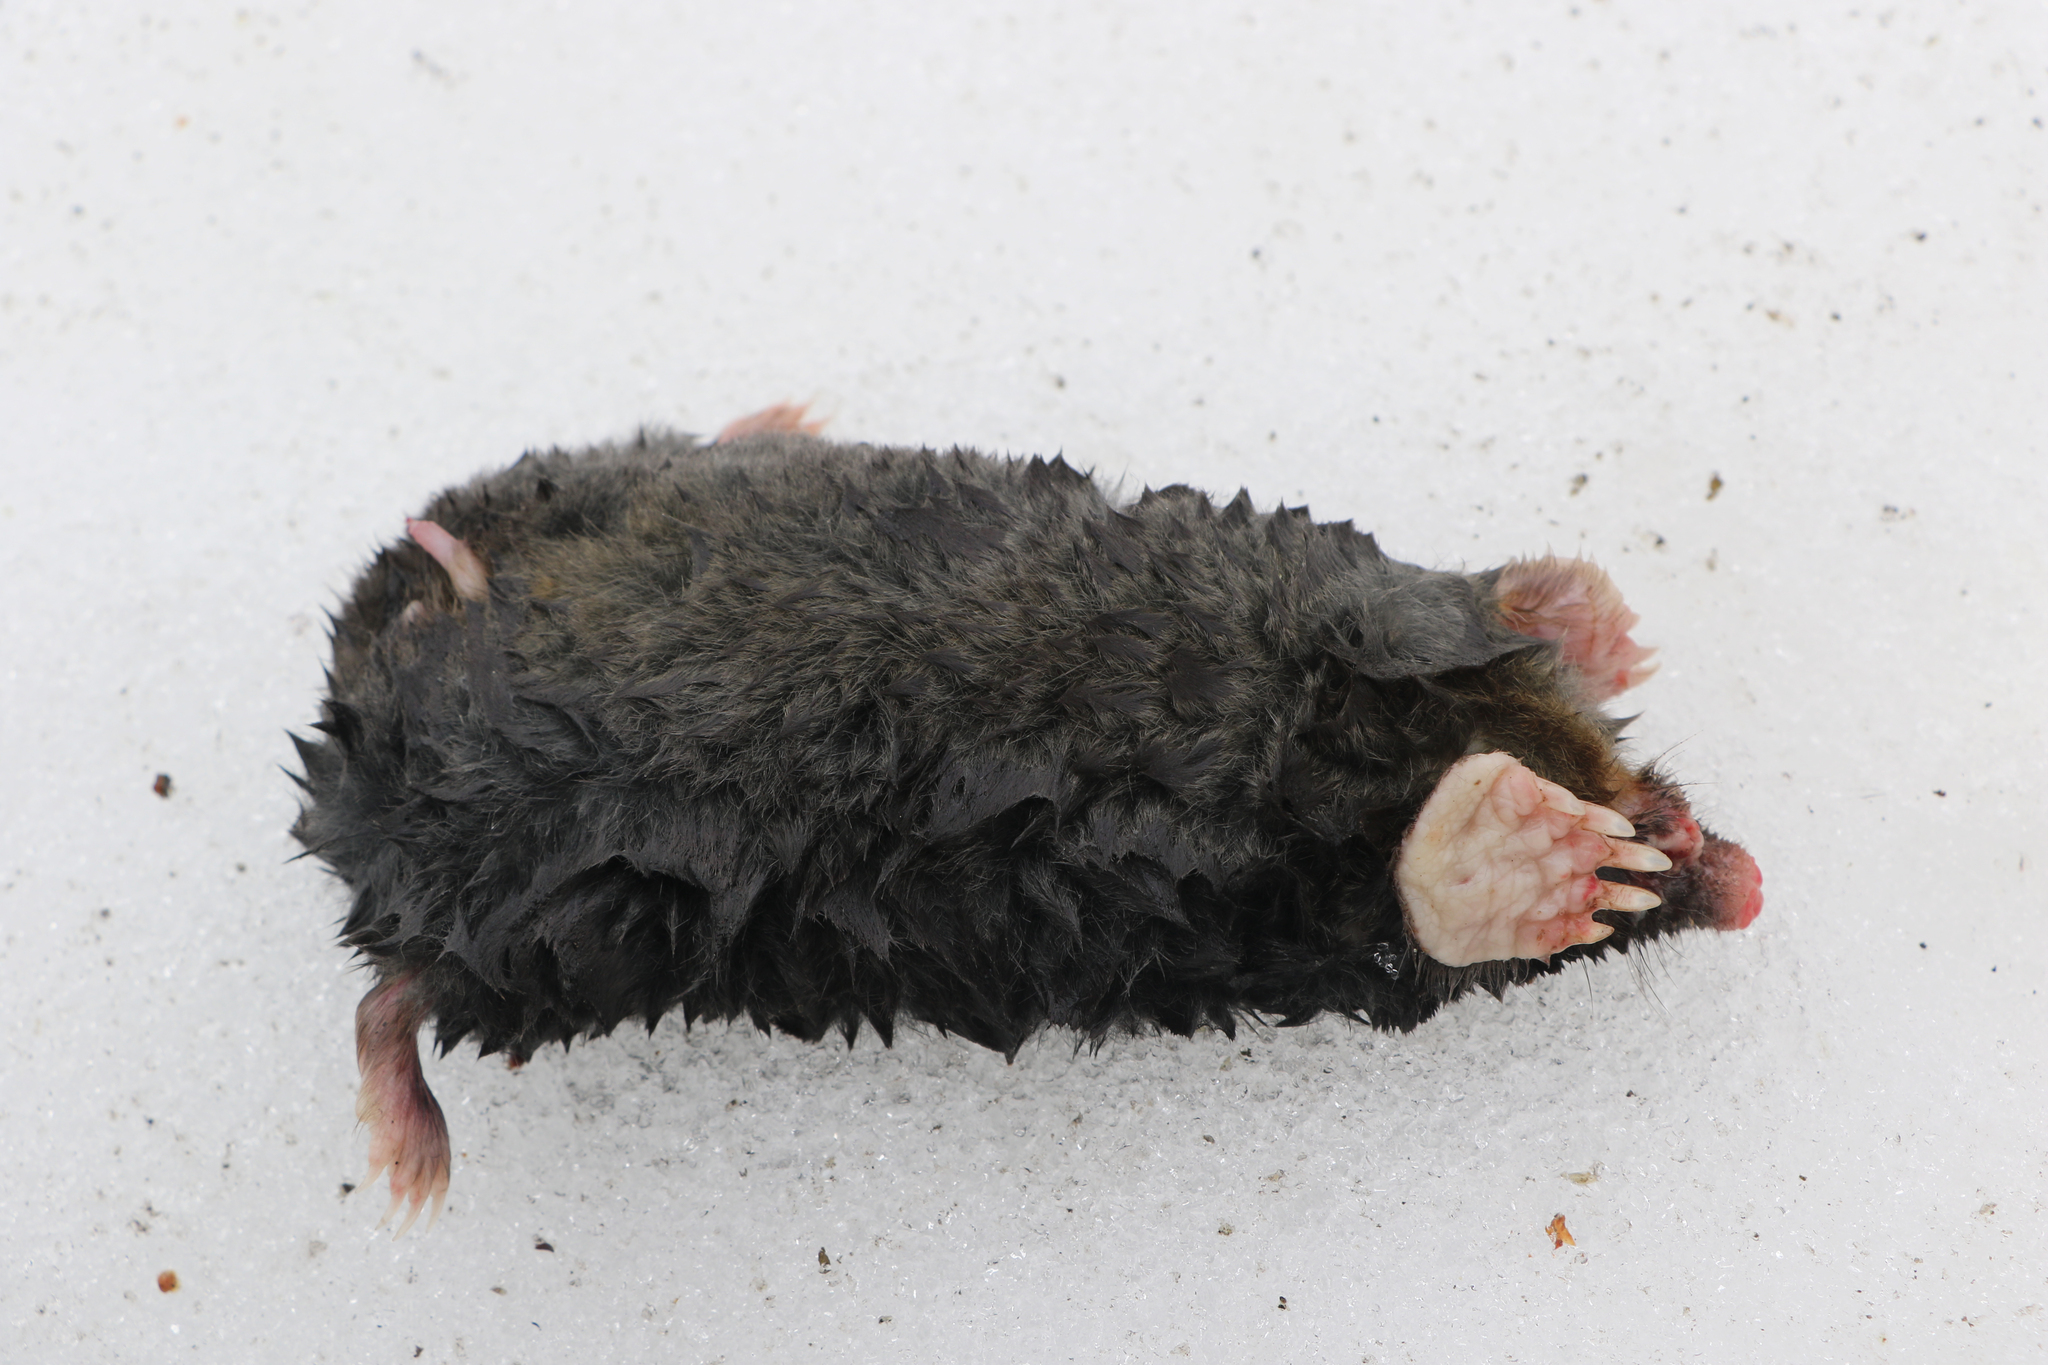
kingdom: Animalia
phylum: Chordata
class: Mammalia
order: Soricomorpha
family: Talpidae
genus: Talpa
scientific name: Talpa europaea
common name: European mole
